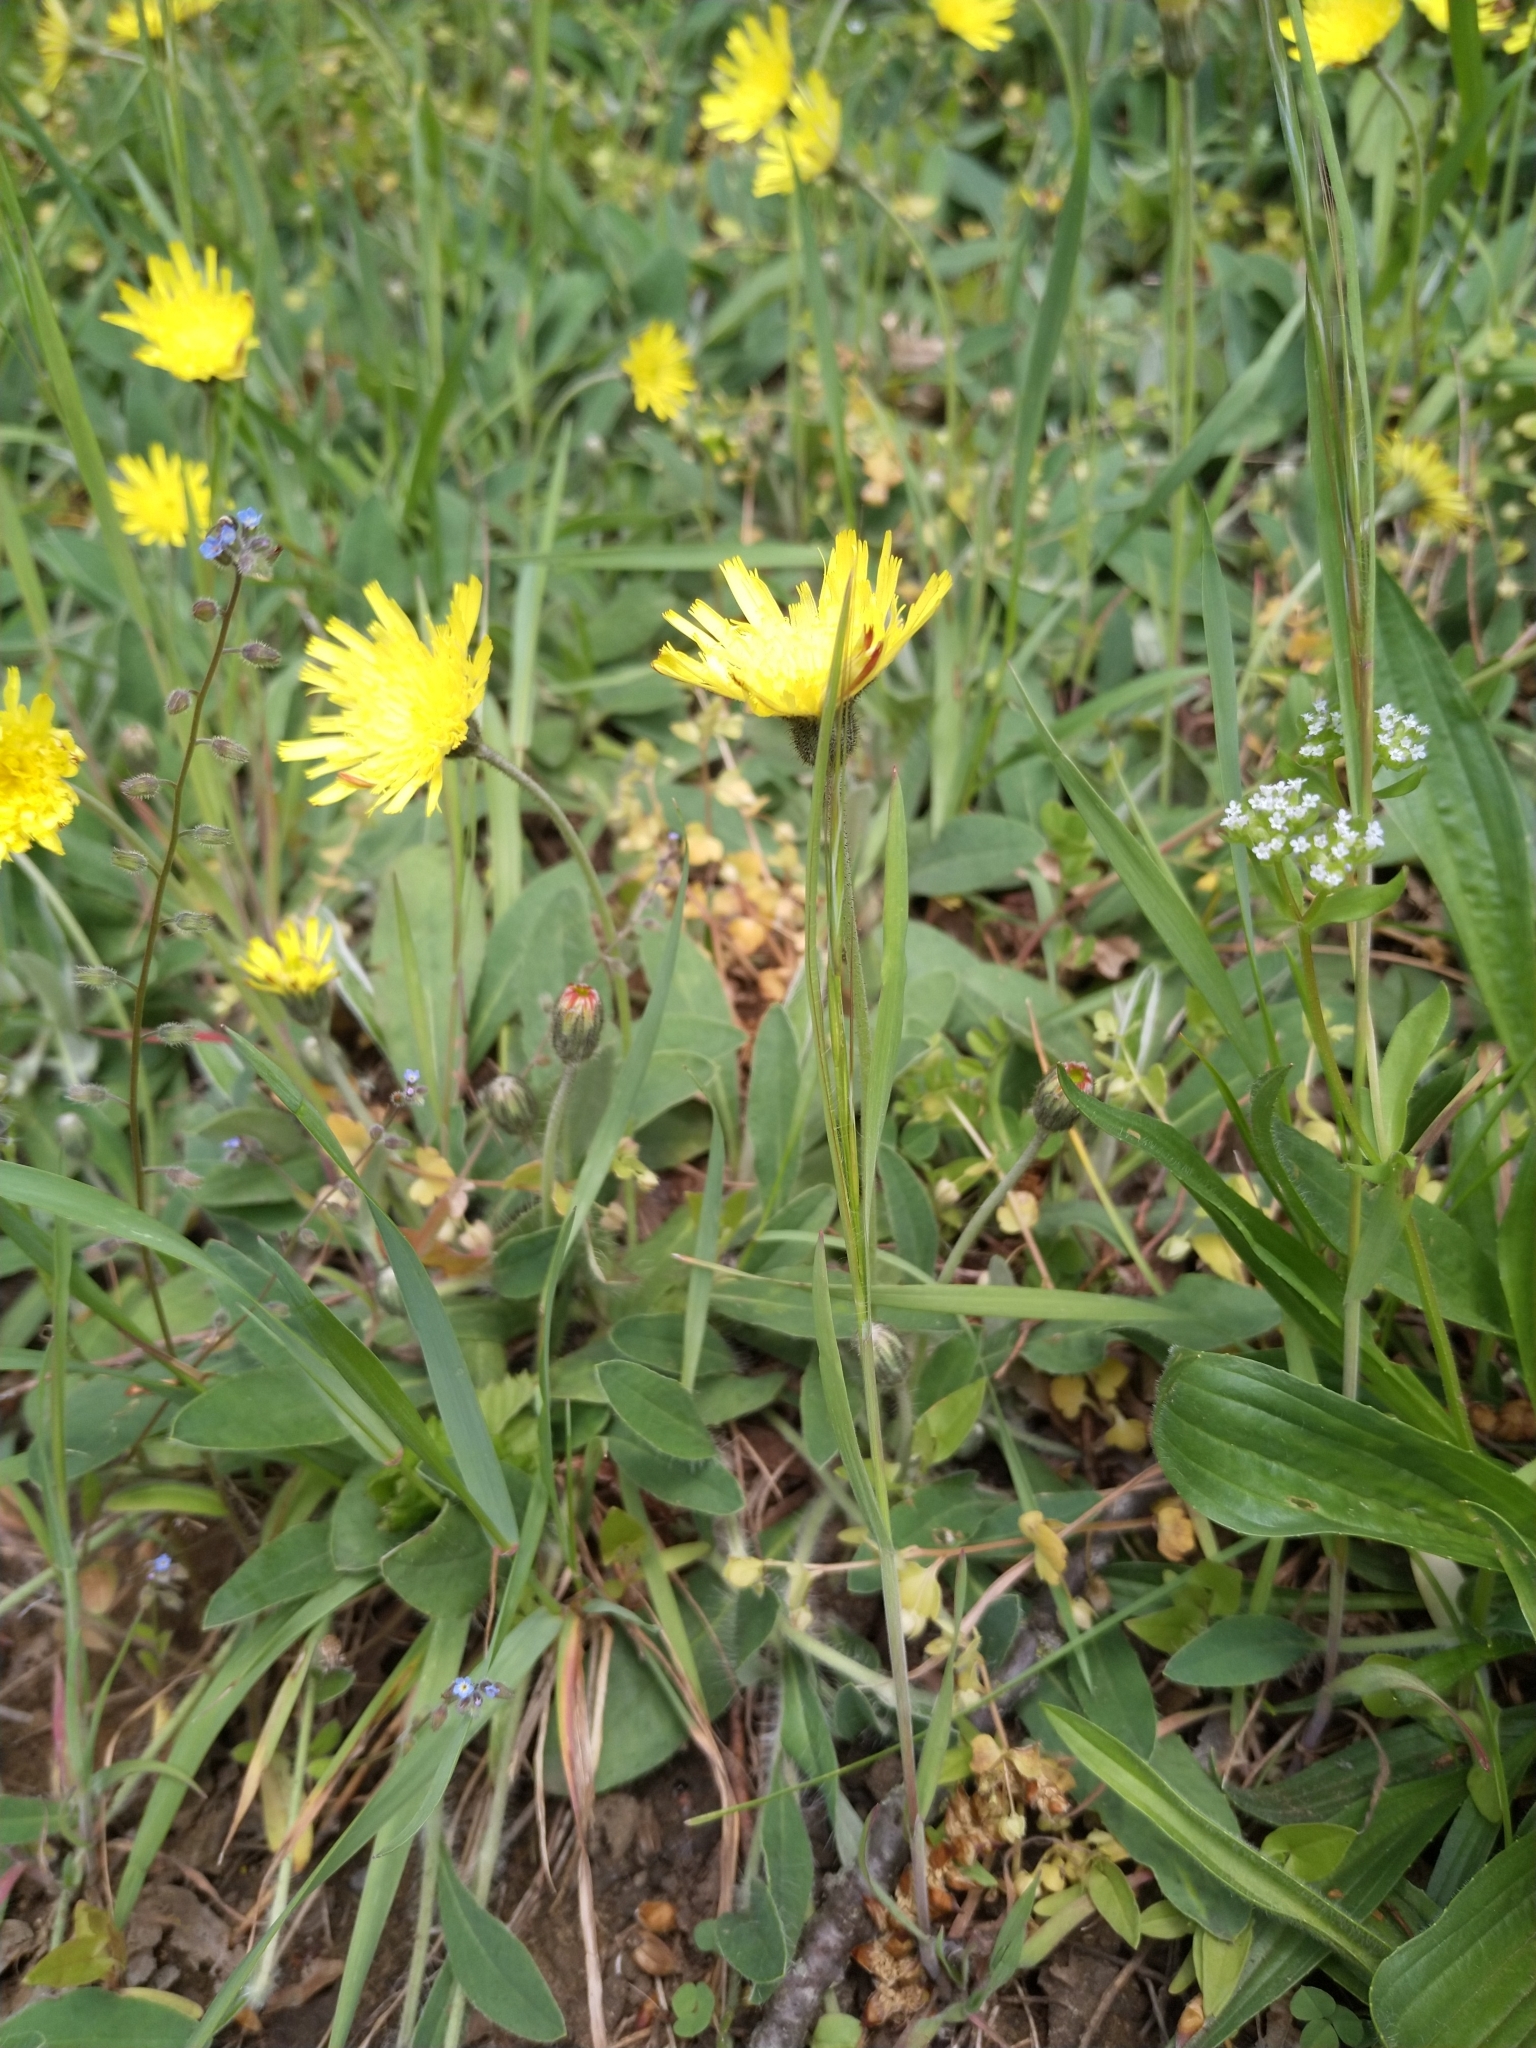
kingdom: Plantae
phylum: Tracheophyta
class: Magnoliopsida
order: Asterales
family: Asteraceae
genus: Pilosella
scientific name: Pilosella officinarum
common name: Mouse-ear hawkweed
